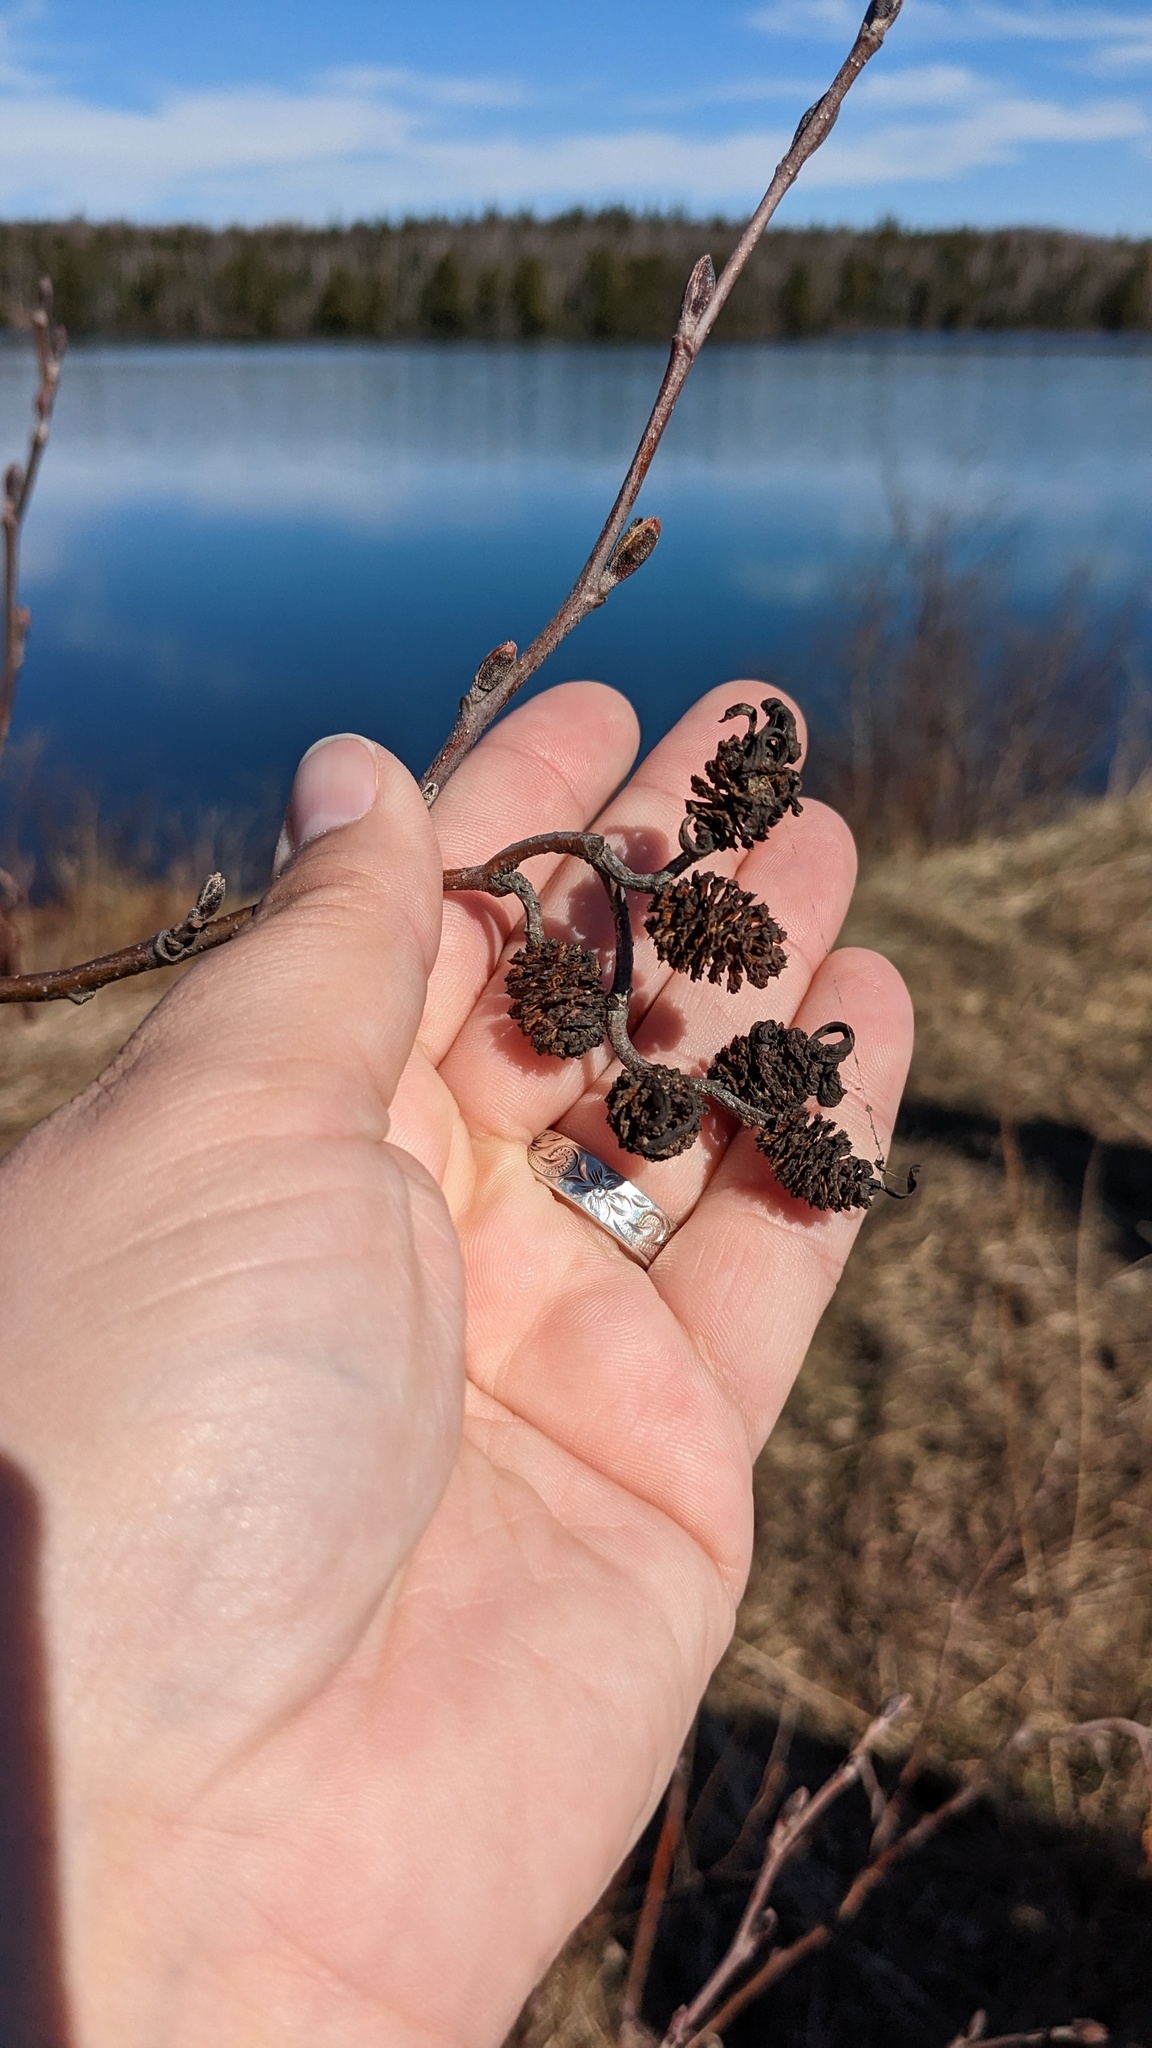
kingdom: Fungi
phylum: Ascomycota
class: Taphrinomycetes
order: Taphrinales
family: Taphrinaceae
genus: Taphrina
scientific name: Taphrina robinsoniana
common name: Eastern american alder tongue gall fungus
